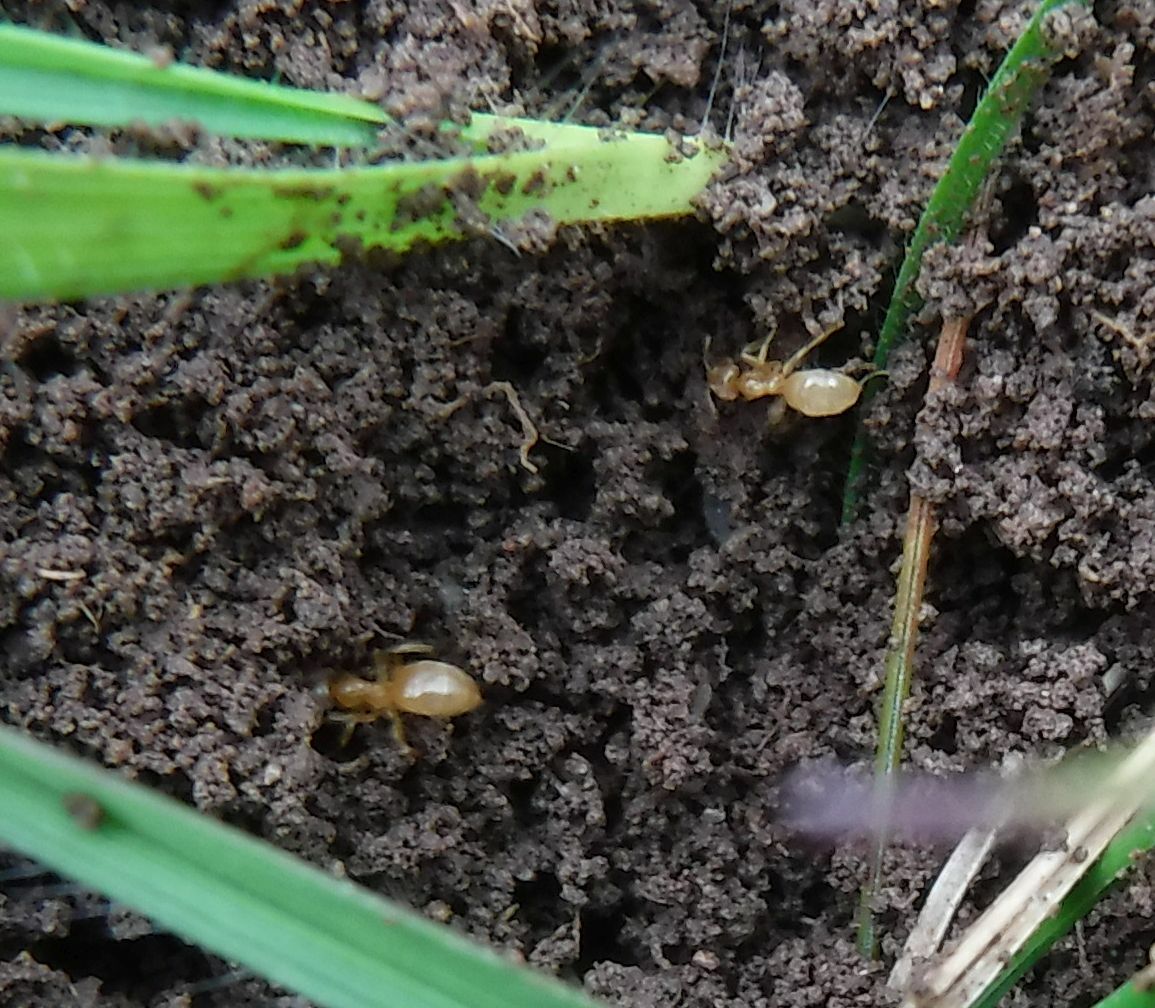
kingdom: Animalia
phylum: Arthropoda
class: Insecta
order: Hymenoptera
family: Formicidae
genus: Lasius
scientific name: Lasius flavus
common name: Blond field ant
